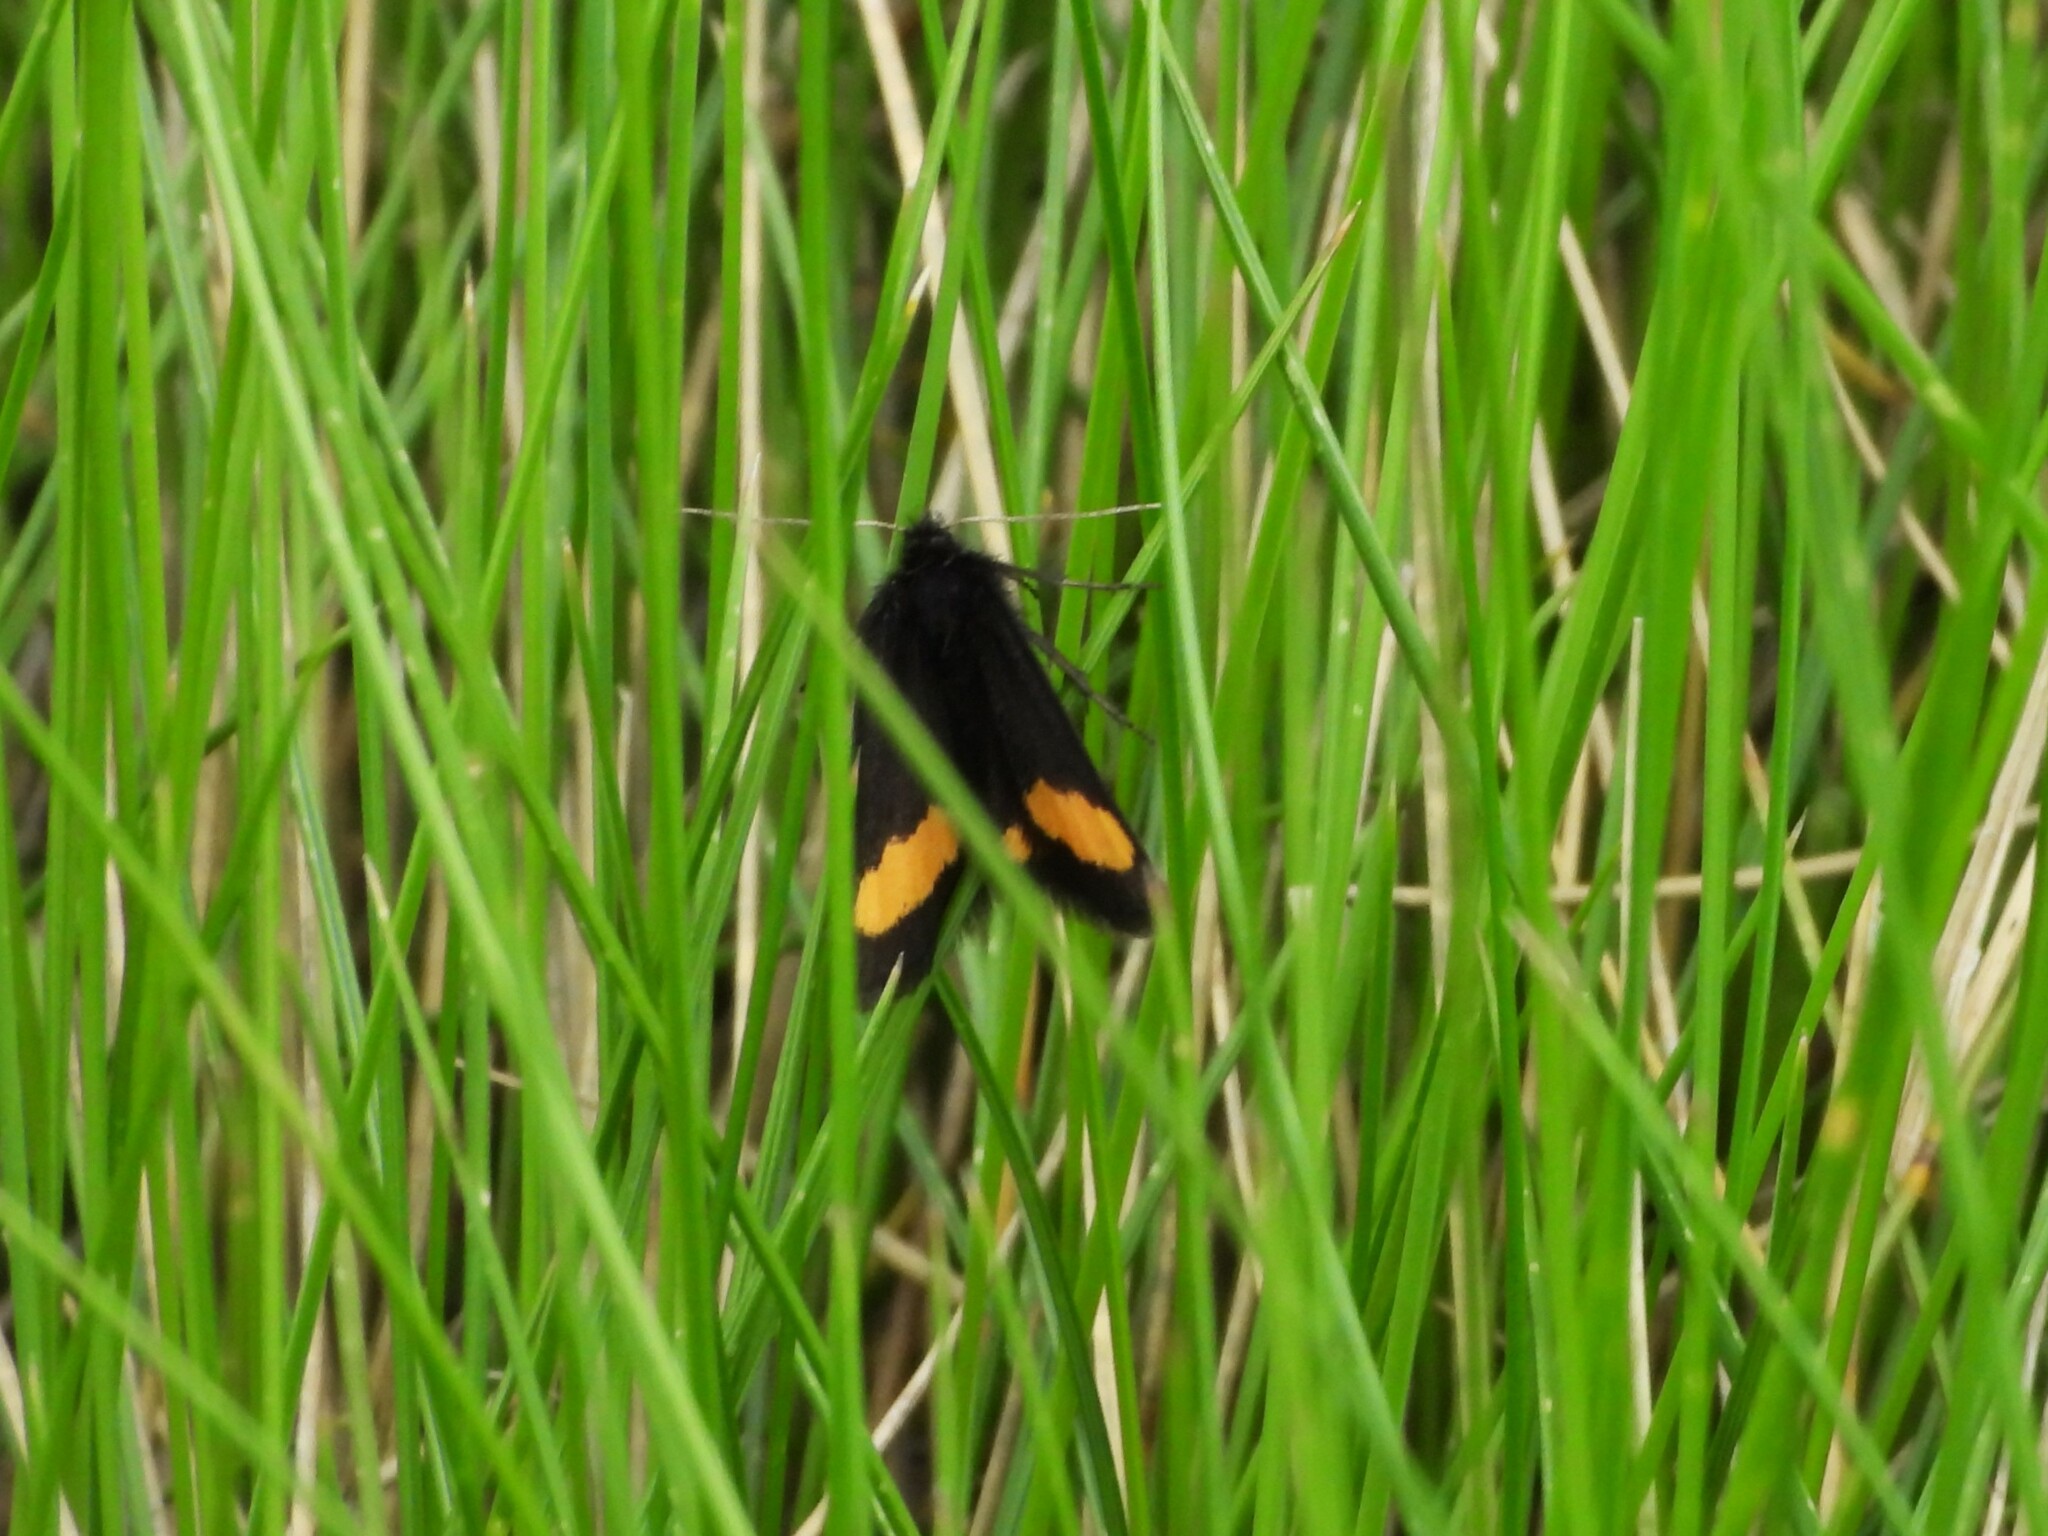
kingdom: Animalia
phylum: Arthropoda
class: Insecta
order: Lepidoptera
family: Geometridae
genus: Psodos
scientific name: Psodos quadrifaria
